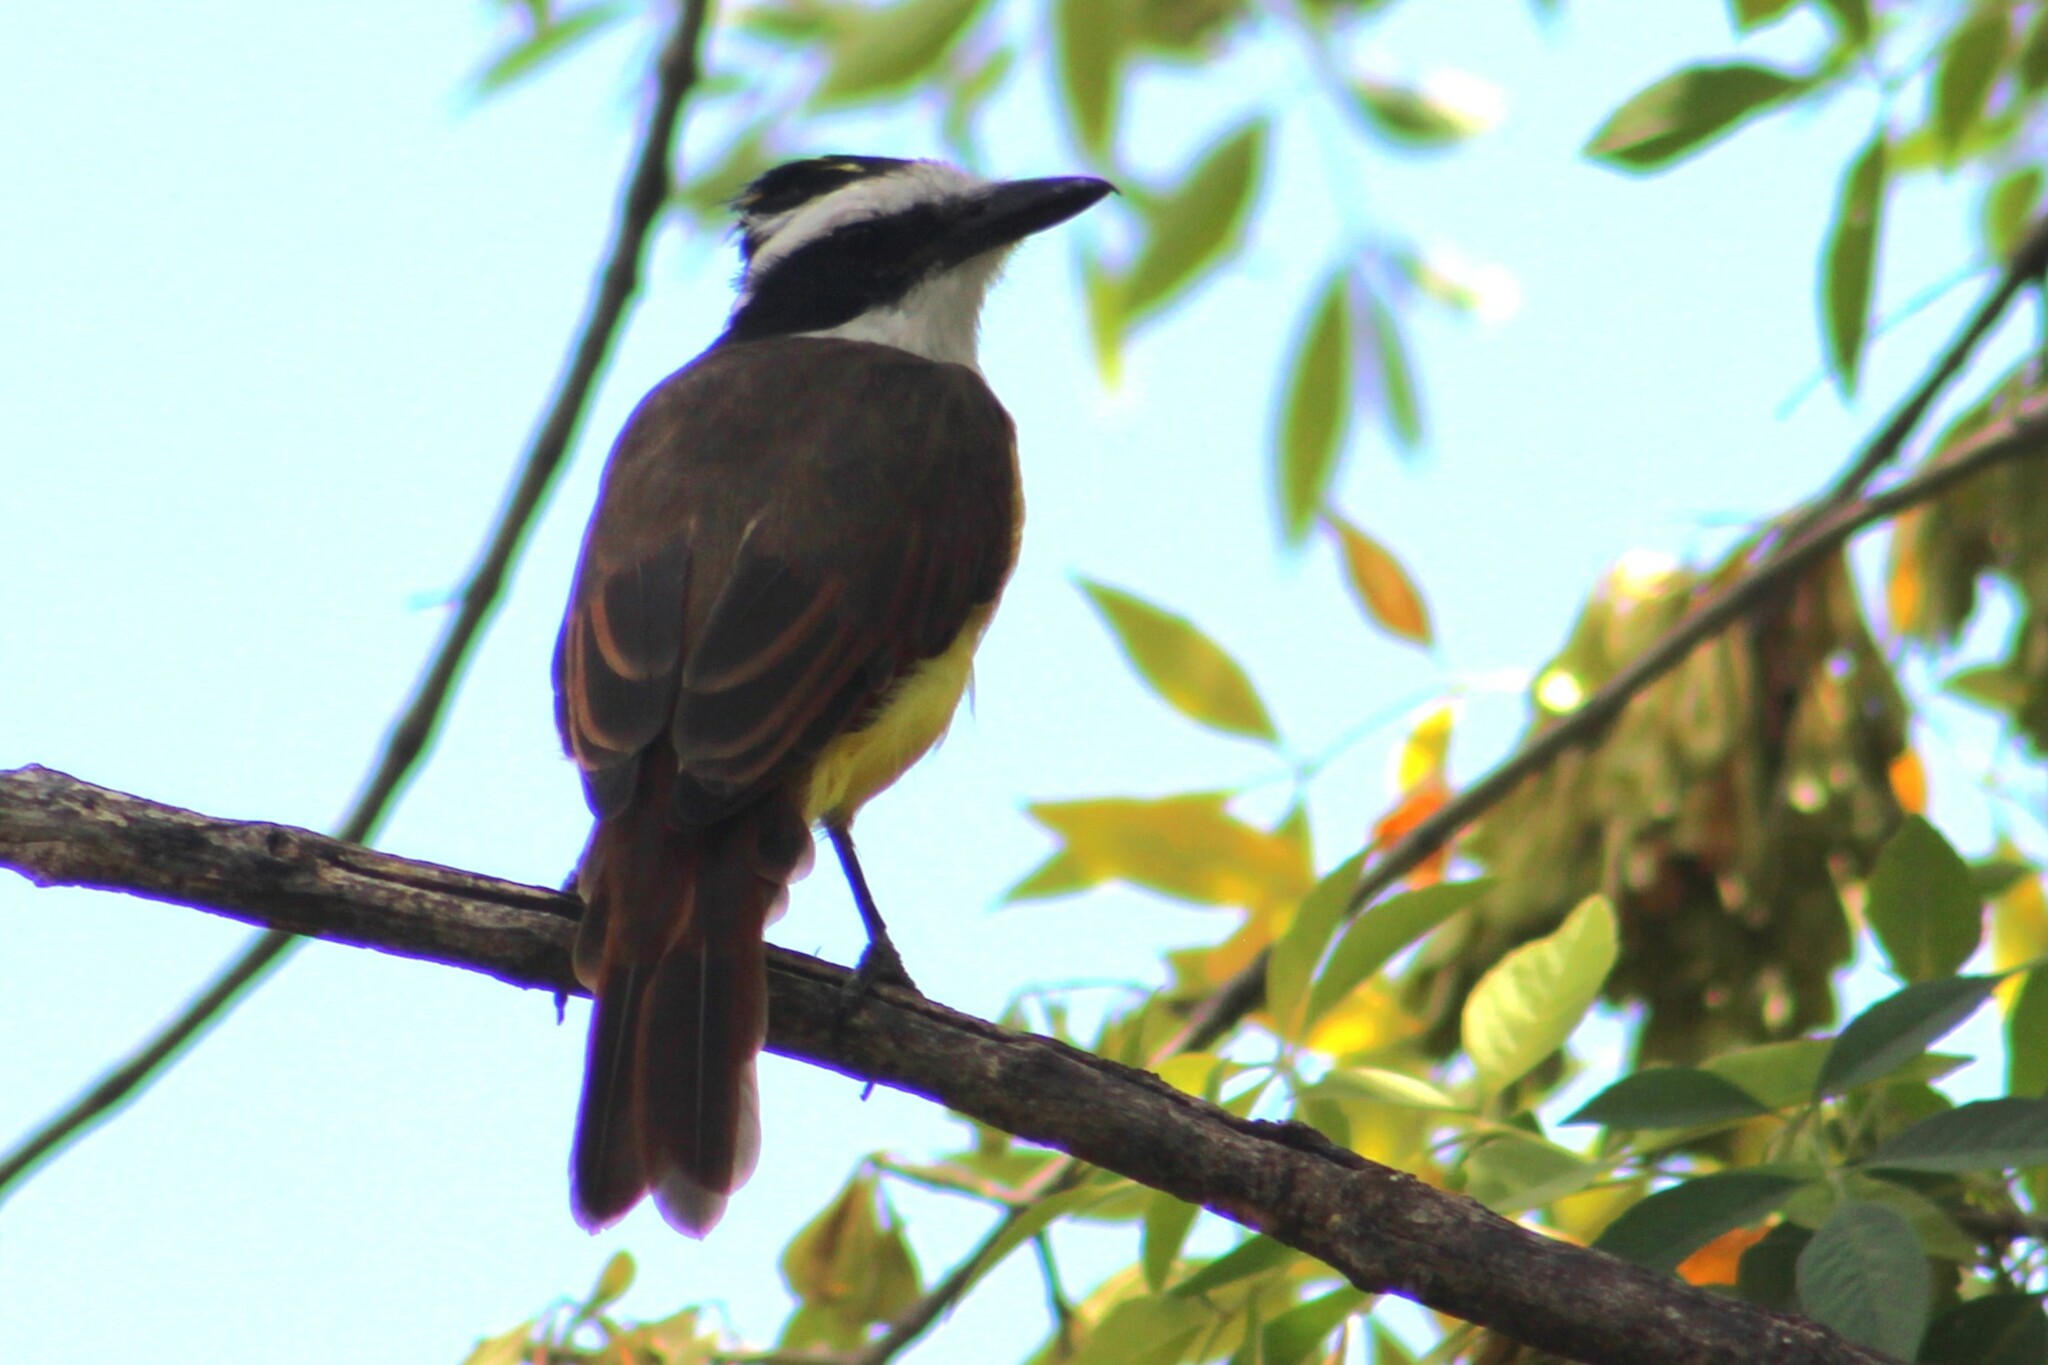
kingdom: Animalia
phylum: Chordata
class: Aves
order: Passeriformes
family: Tyrannidae
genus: Pitangus
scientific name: Pitangus sulphuratus
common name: Great kiskadee
